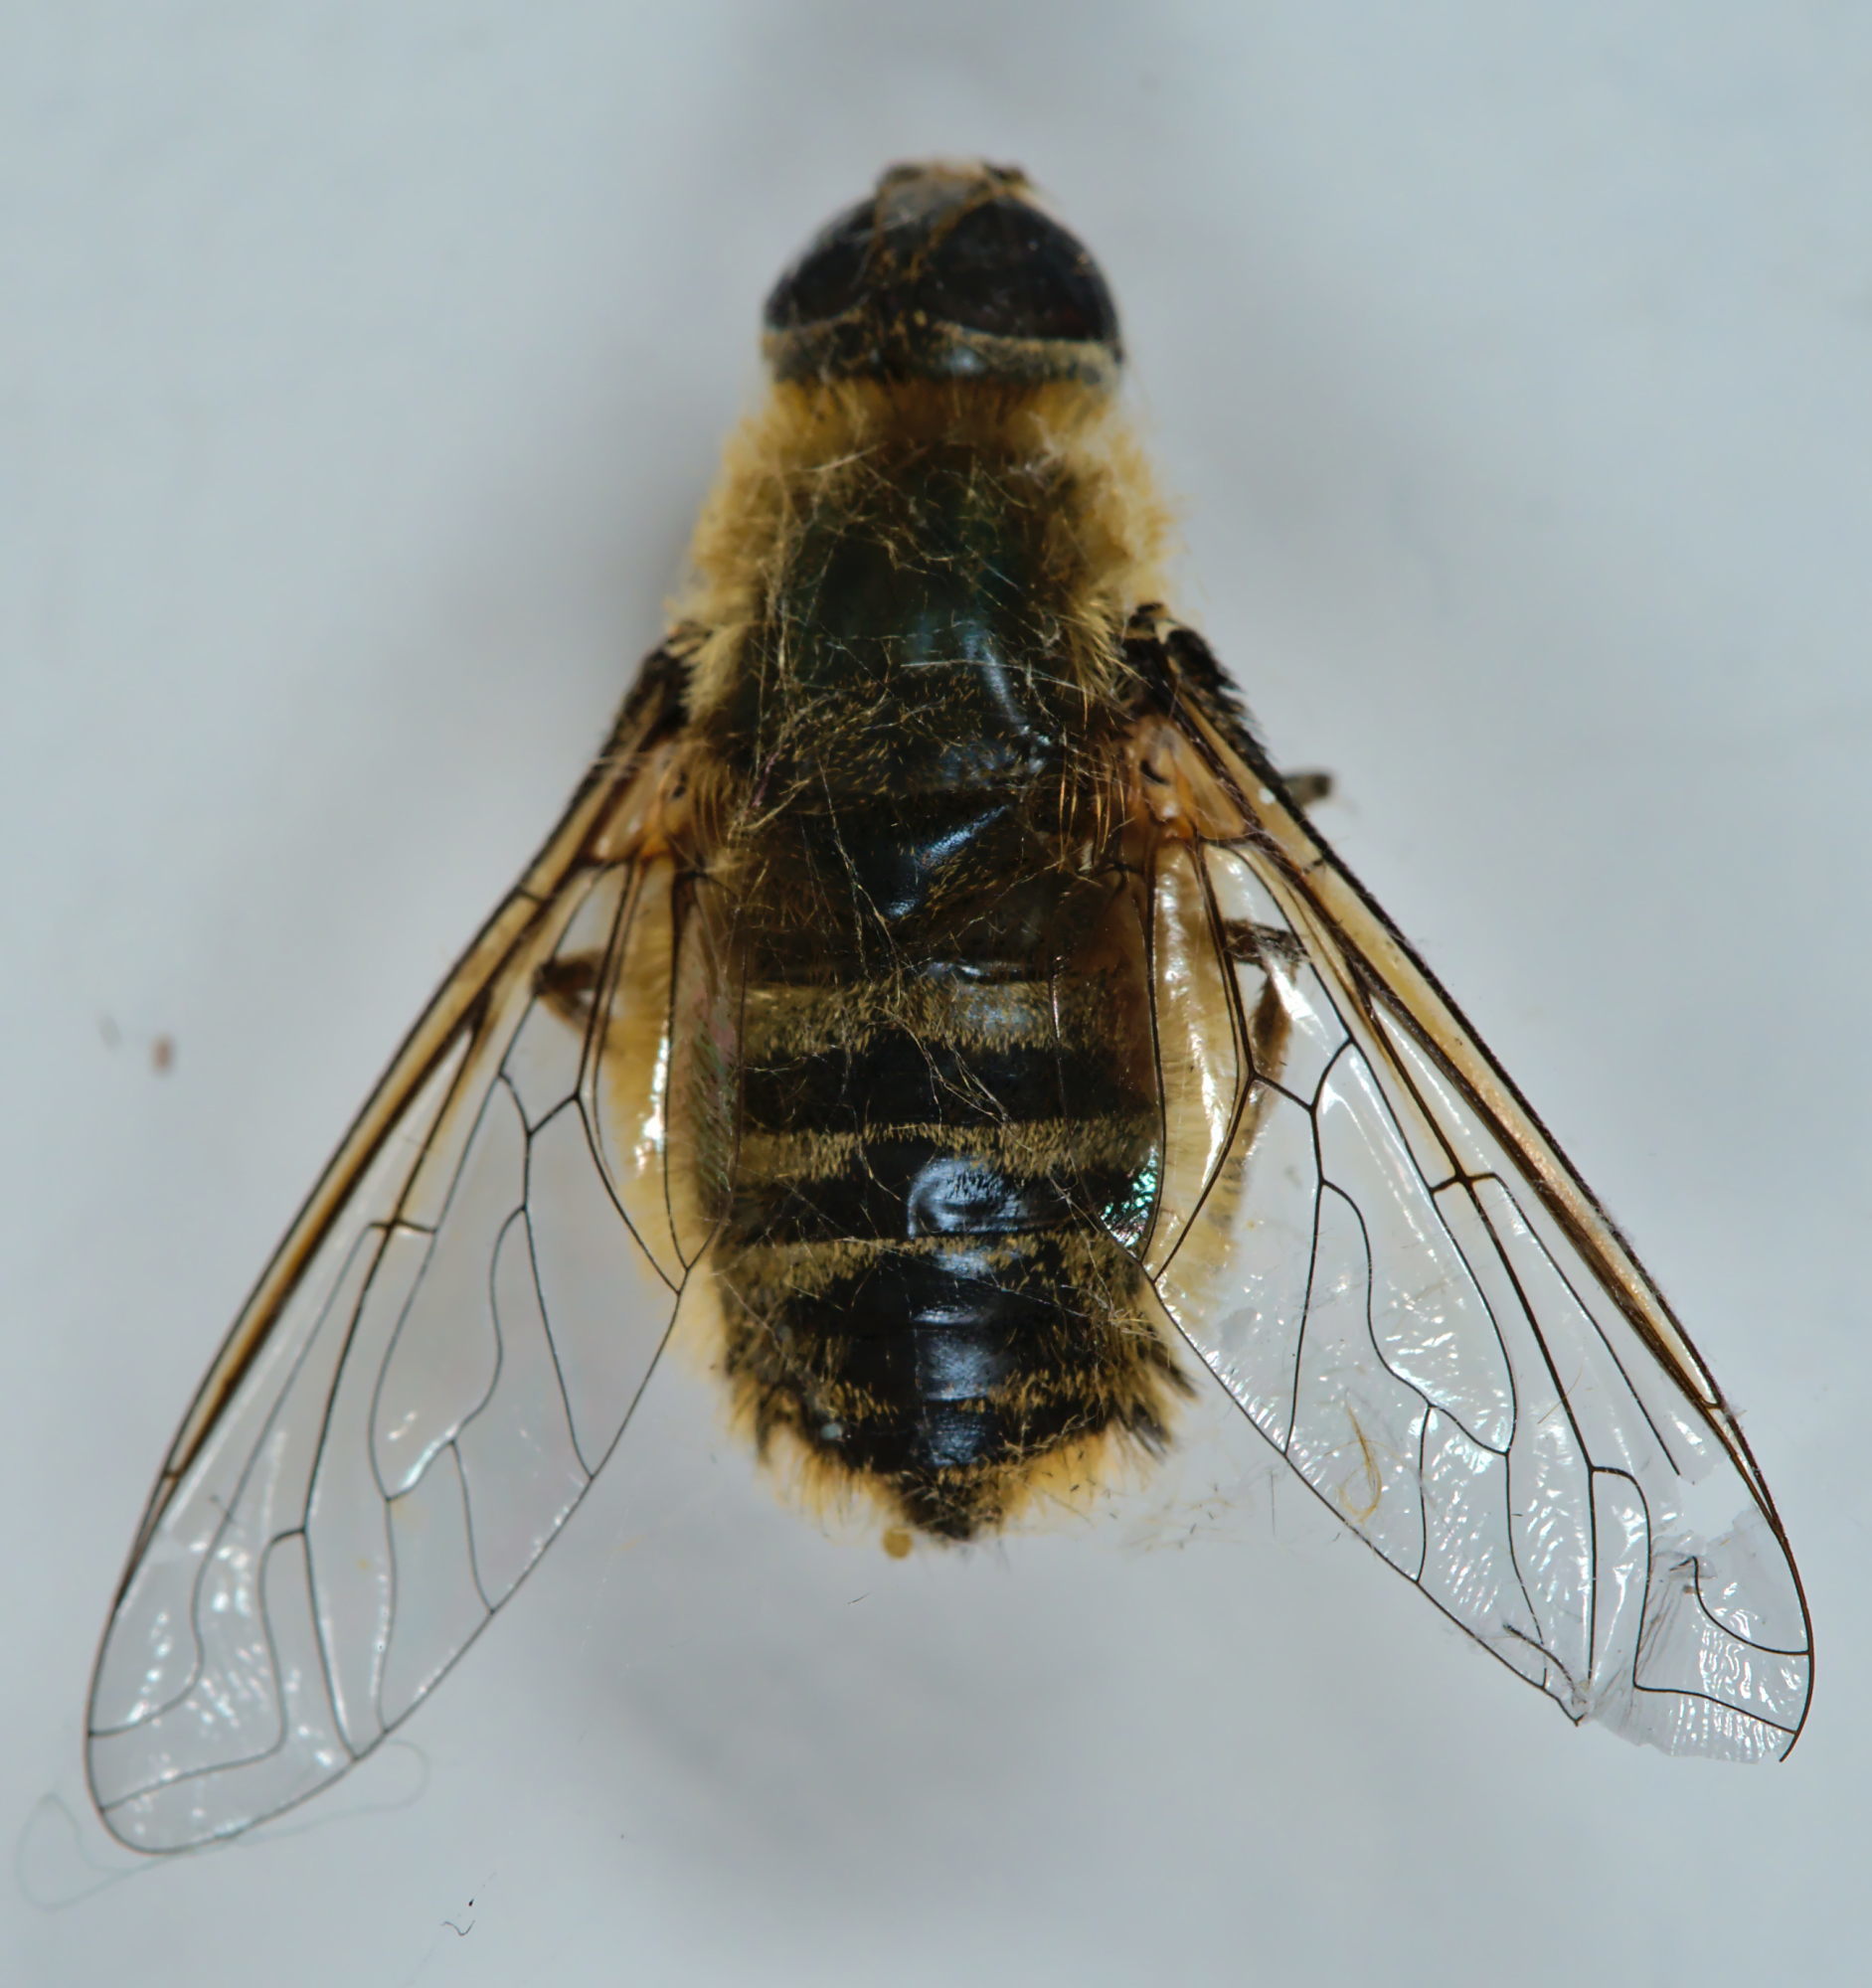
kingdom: Animalia
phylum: Arthropoda
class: Insecta
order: Diptera
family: Bombyliidae
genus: Villa
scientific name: Villa hottentotta
